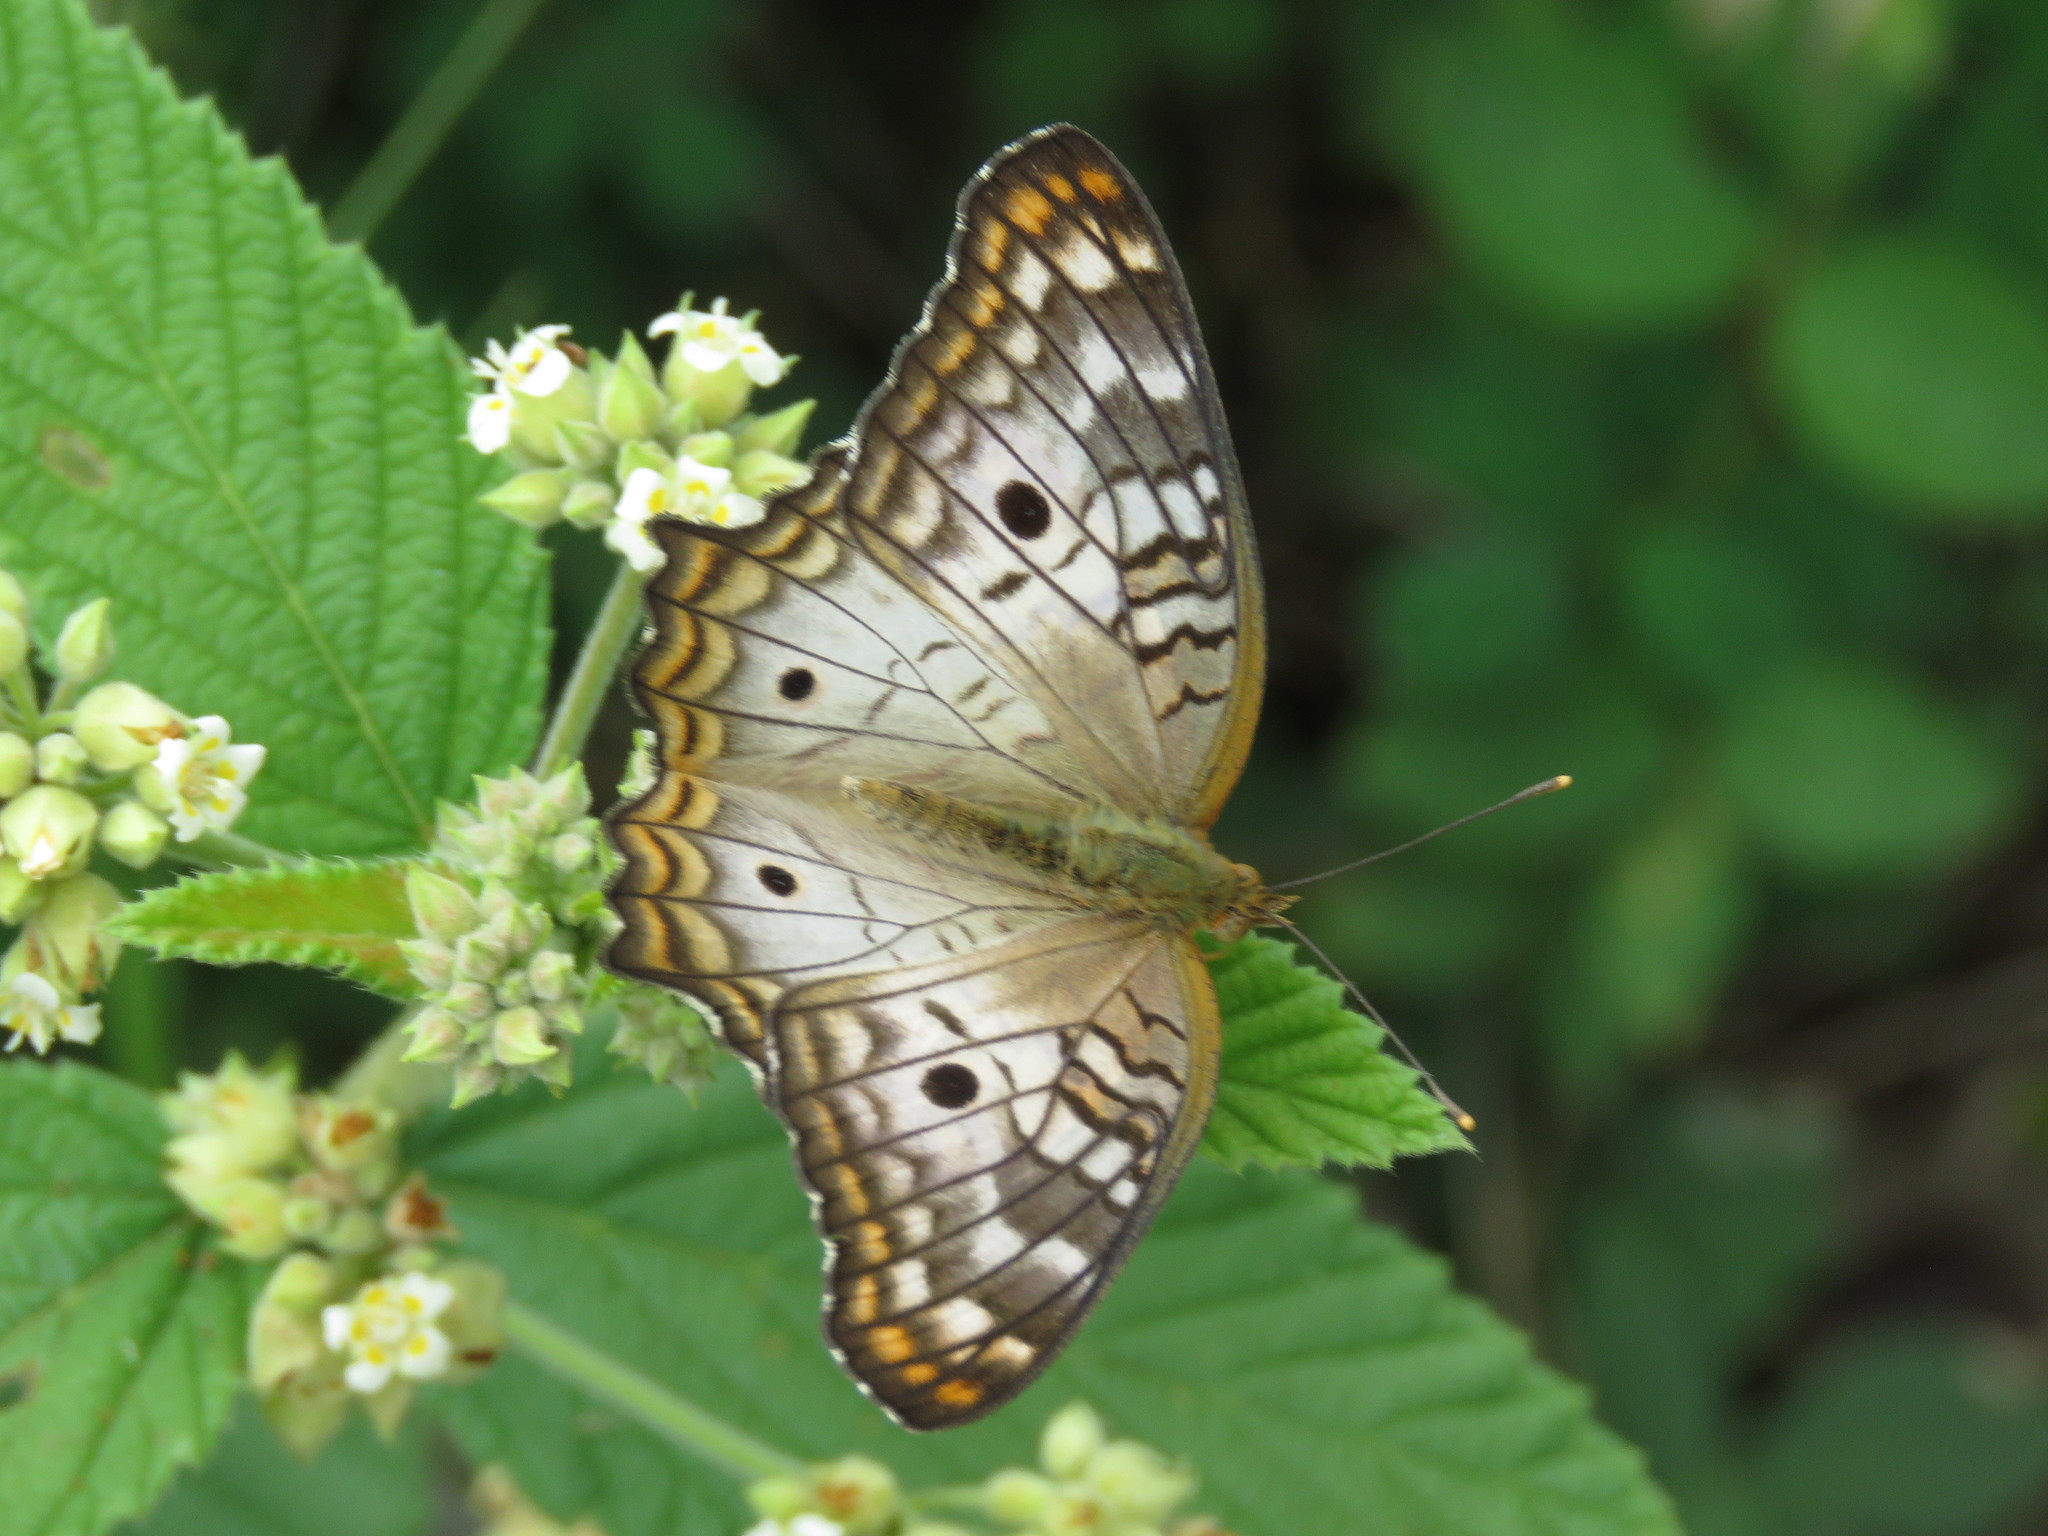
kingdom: Animalia
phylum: Arthropoda
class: Insecta
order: Lepidoptera
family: Nymphalidae
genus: Anartia
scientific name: Anartia jatrophae
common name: White peacock
